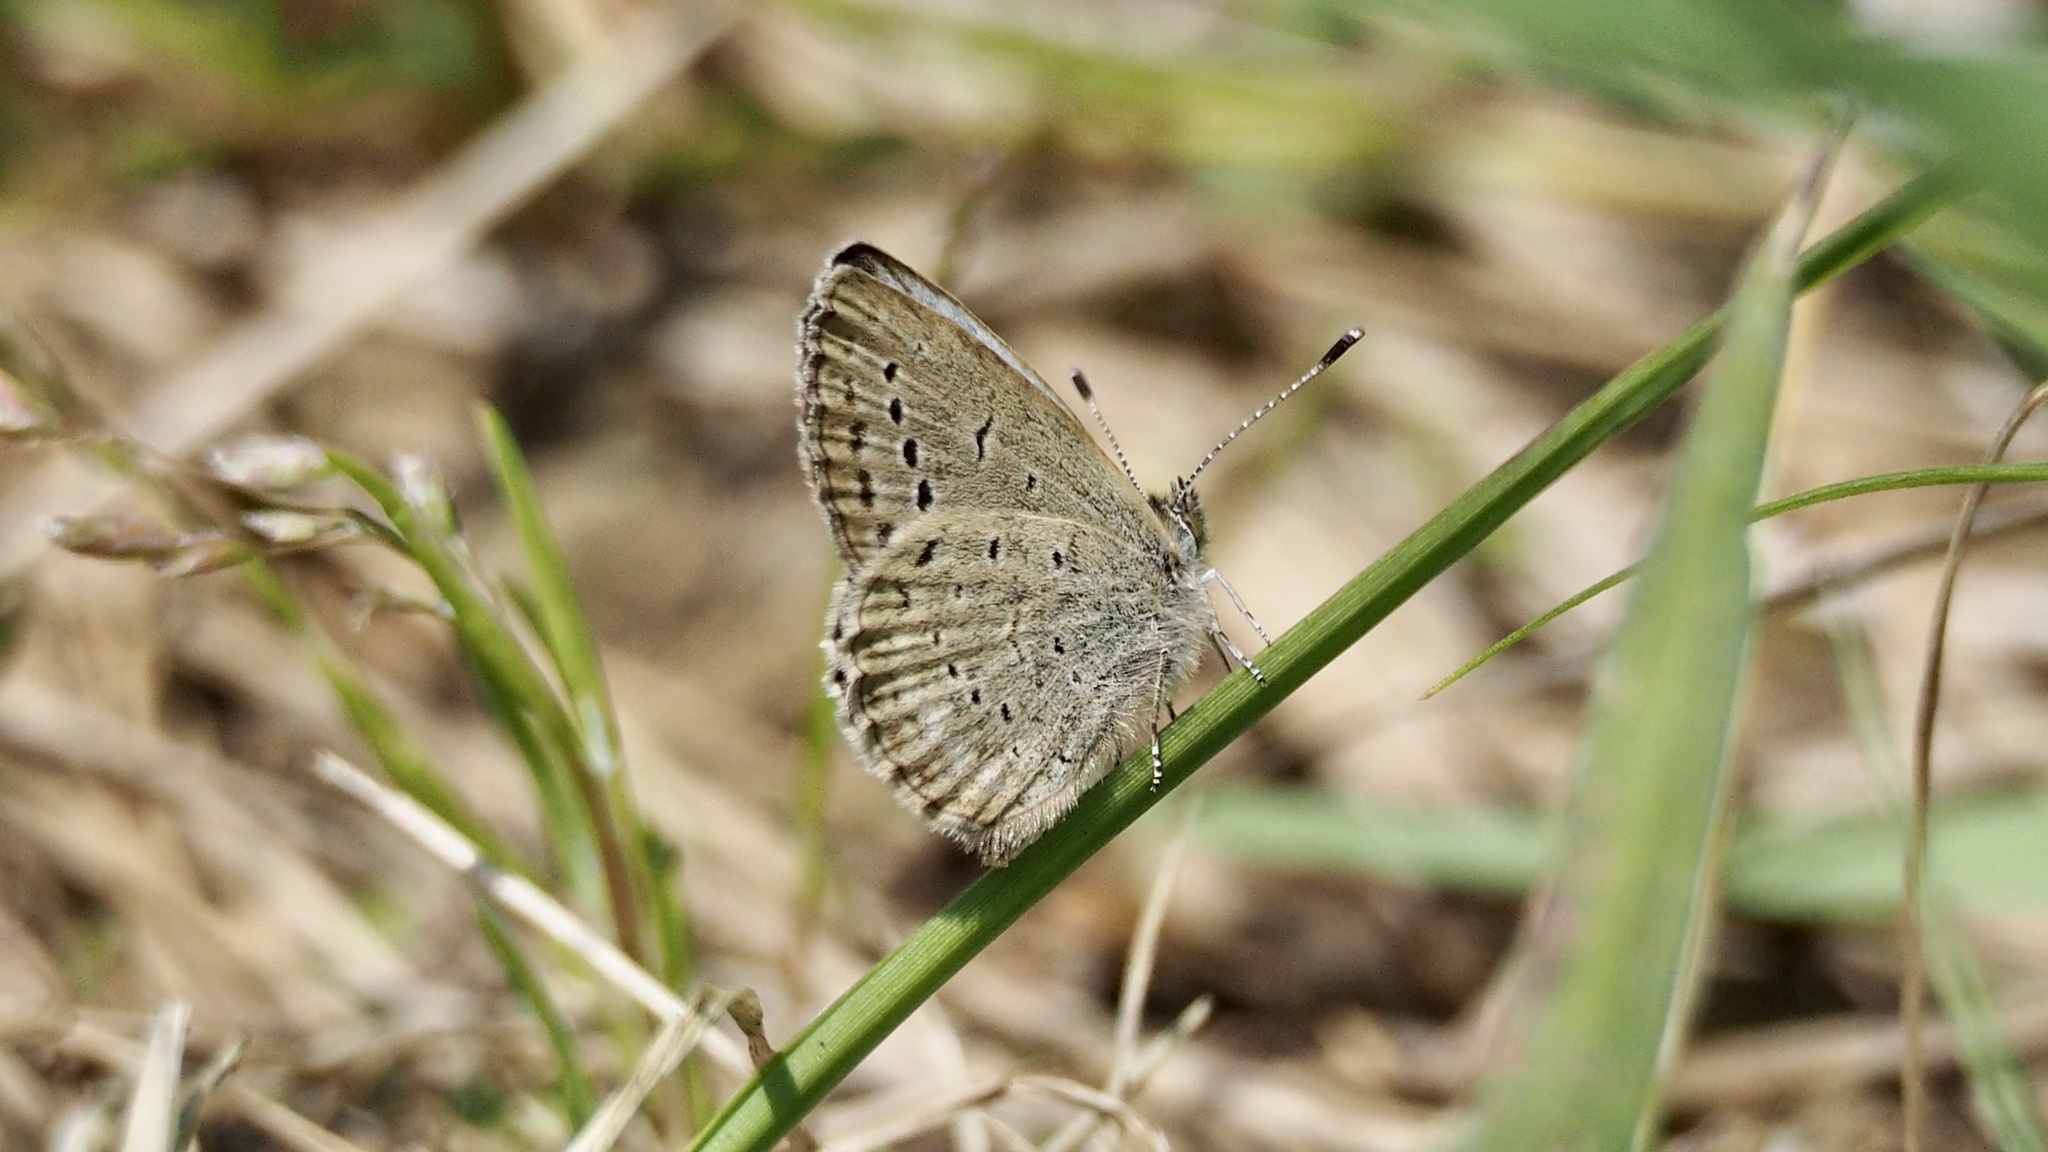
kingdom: Animalia
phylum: Arthropoda
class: Insecta
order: Lepidoptera
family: Lycaenidae
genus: Pseudozizeeria
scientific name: Pseudozizeeria maha
